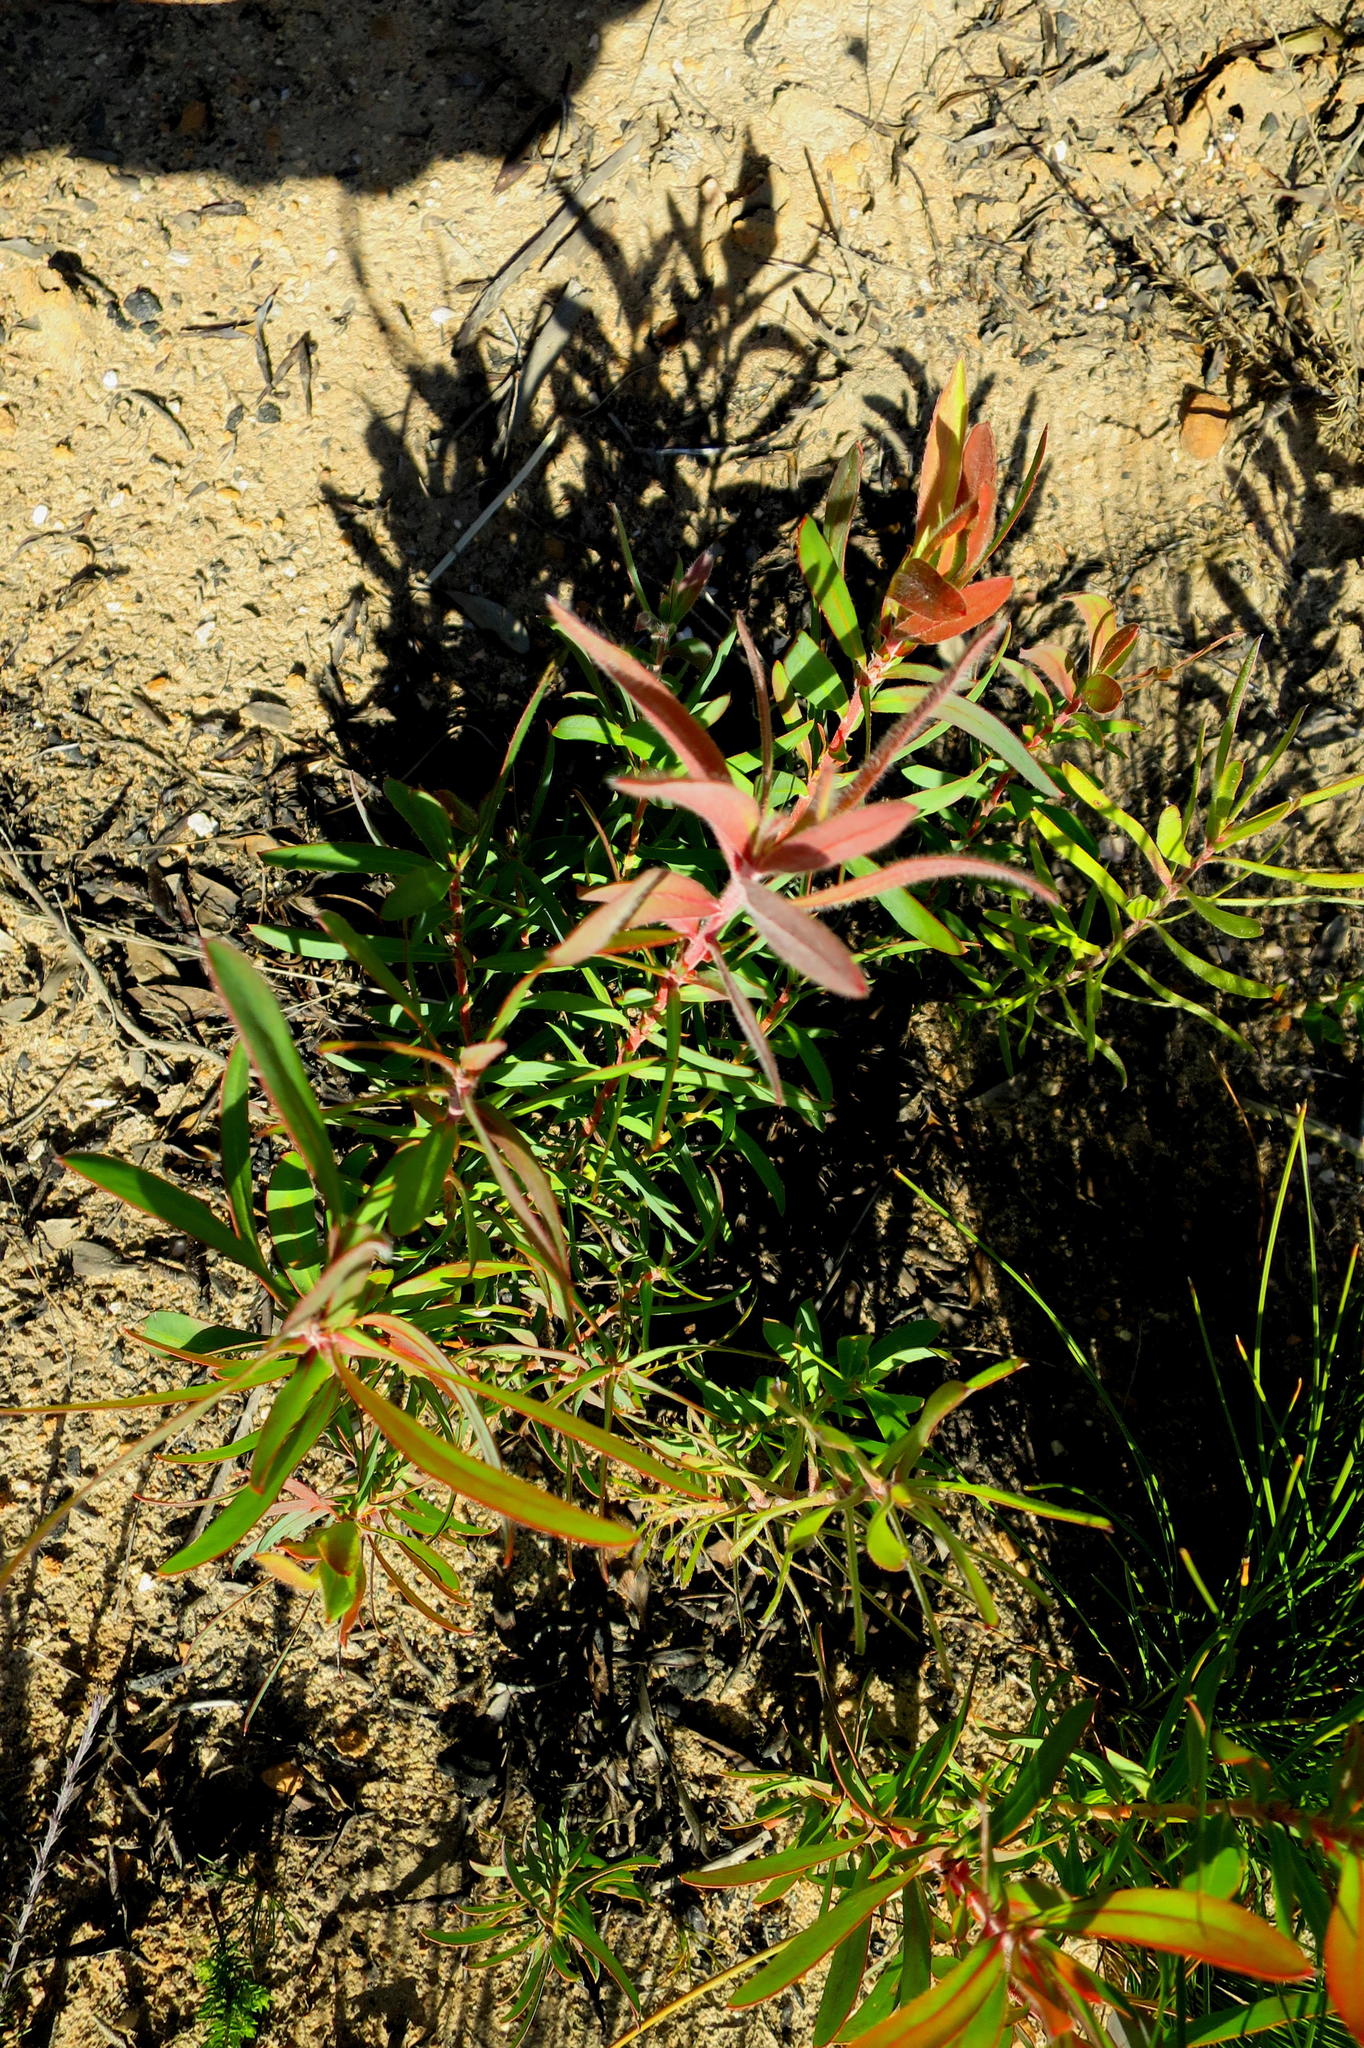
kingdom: Plantae
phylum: Tracheophyta
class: Magnoliopsida
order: Proteales
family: Proteaceae
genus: Leucadendron
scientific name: Leucadendron conicum
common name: Garden route conebush
